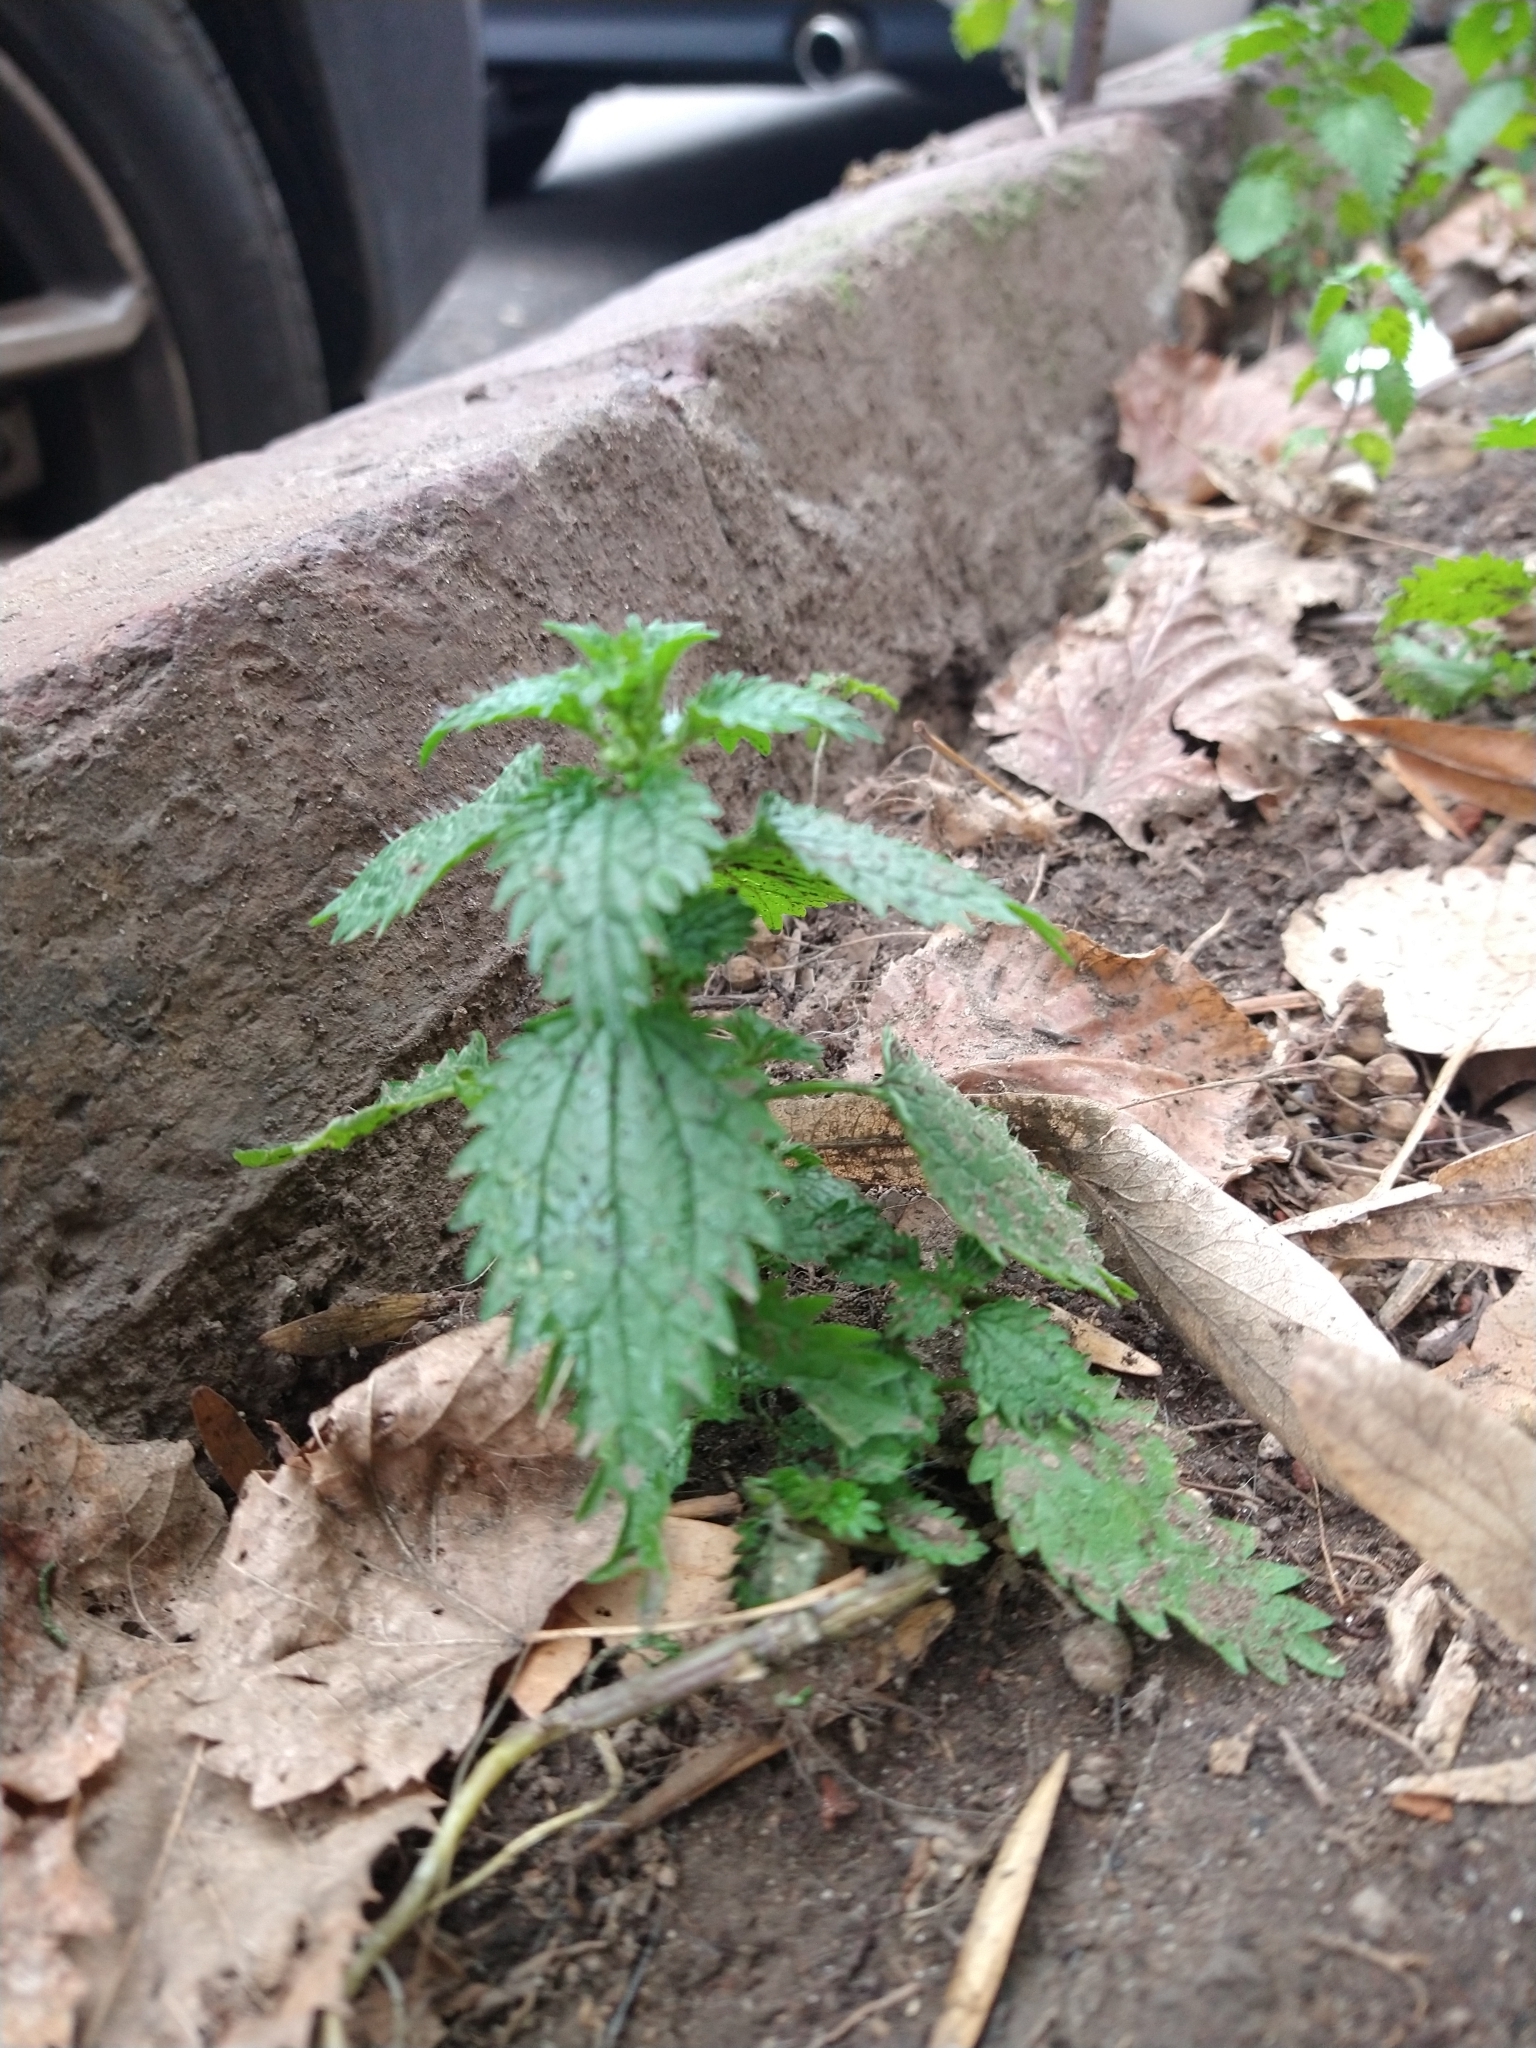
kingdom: Plantae
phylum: Tracheophyta
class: Magnoliopsida
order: Rosales
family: Urticaceae
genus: Urtica
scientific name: Urtica urens
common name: Dwarf nettle
